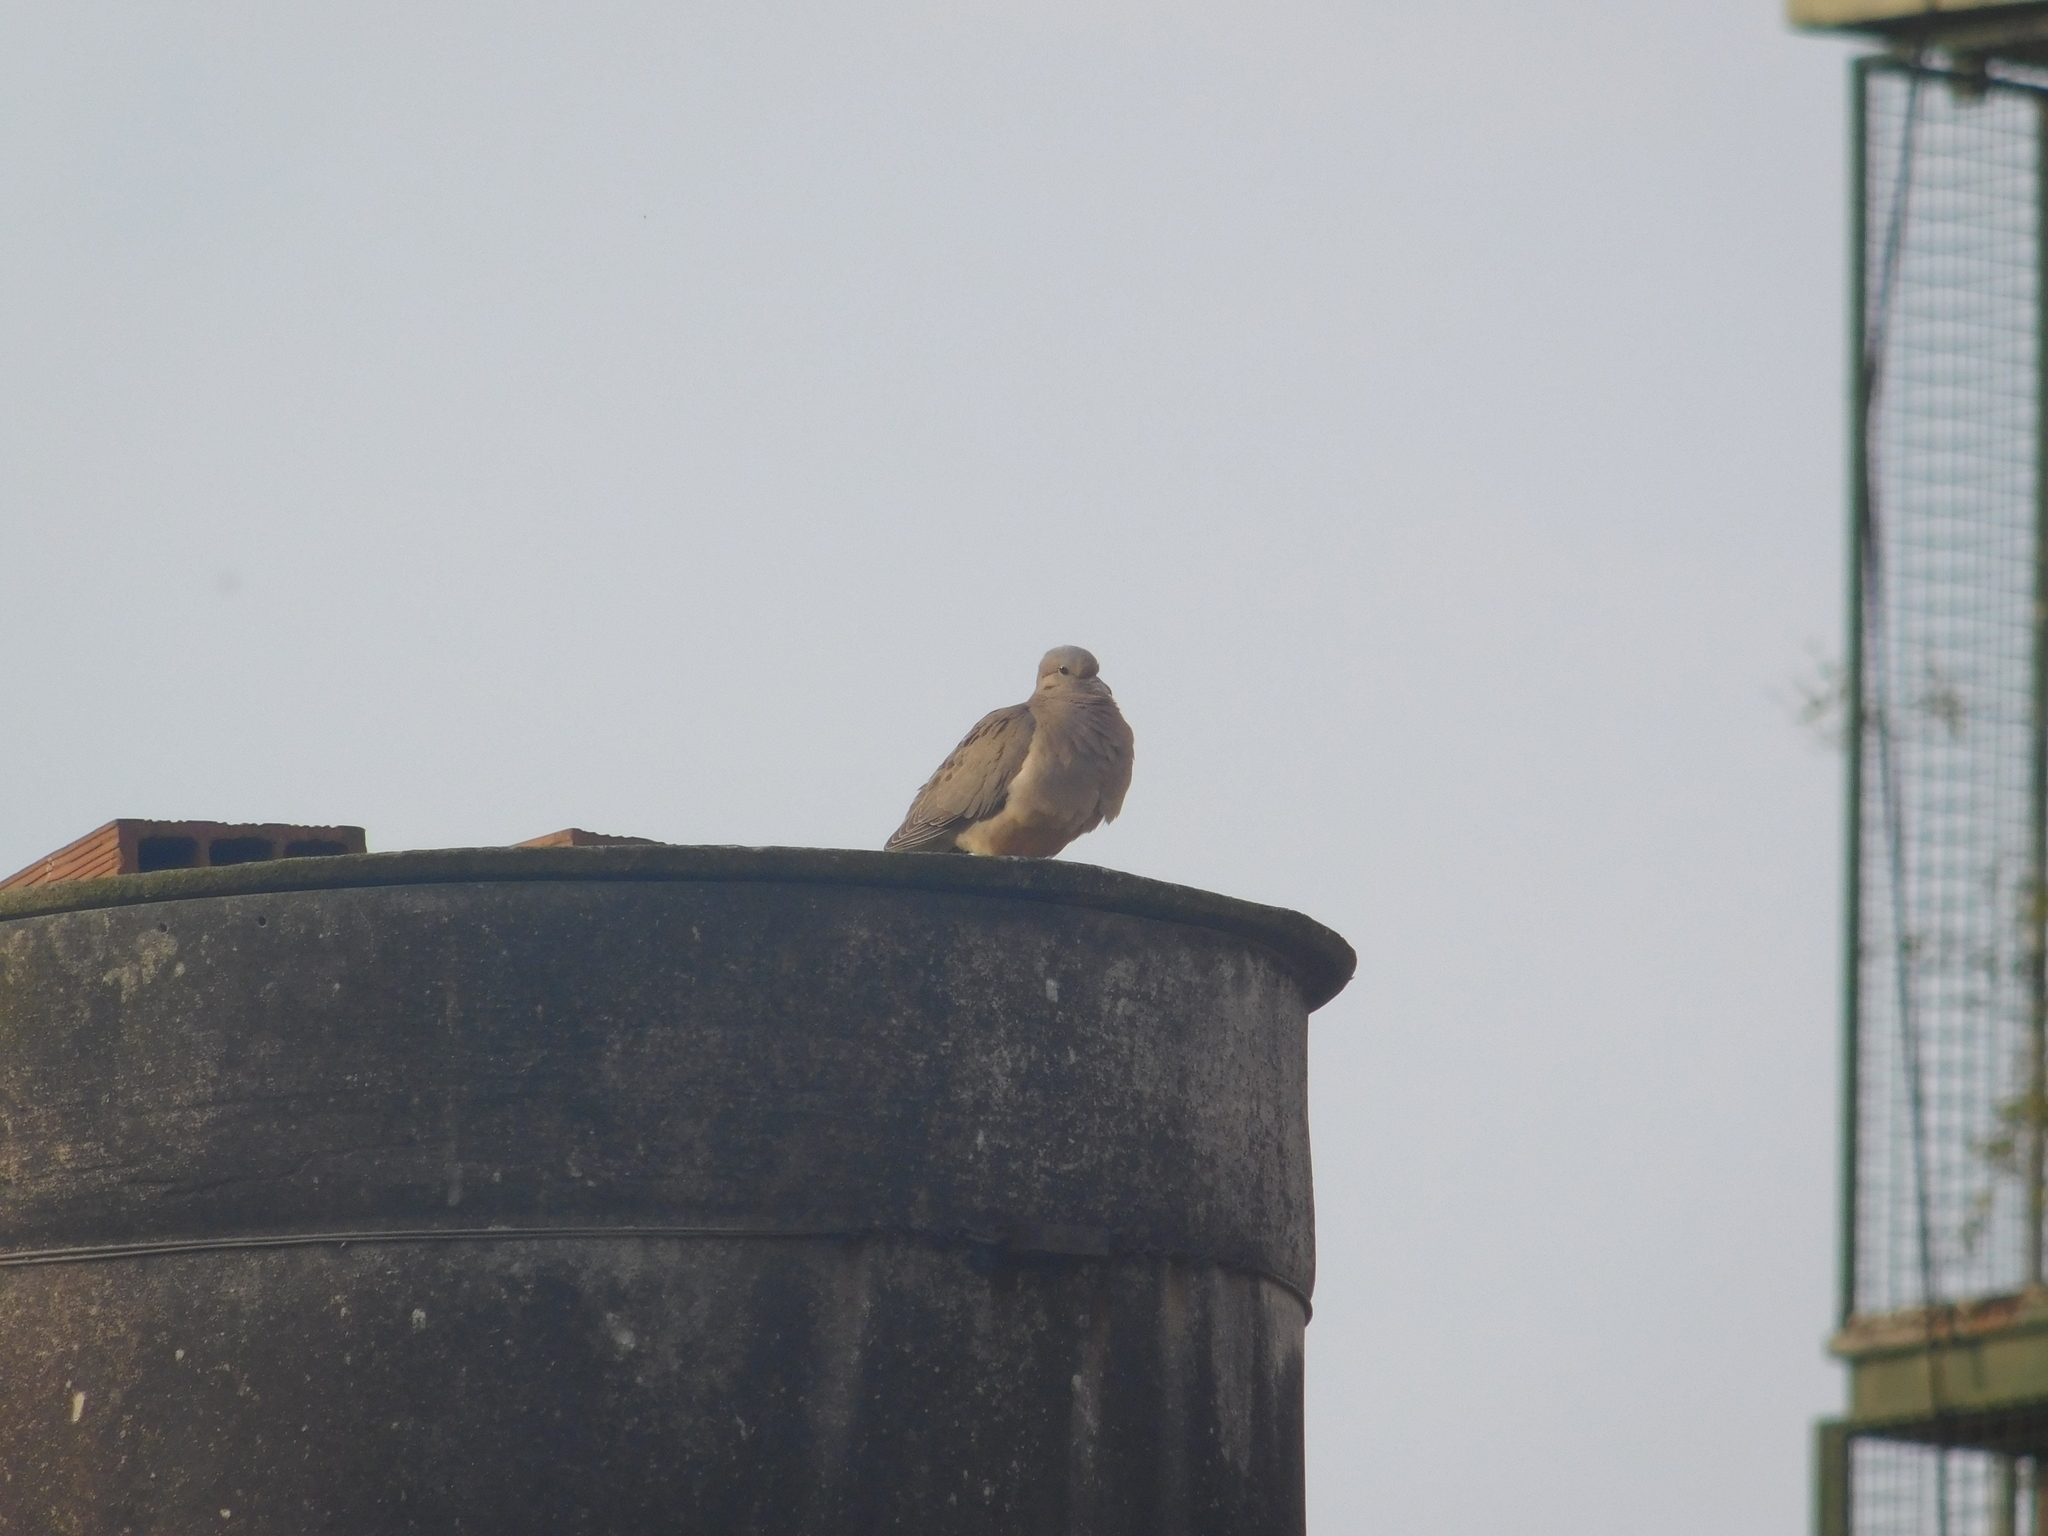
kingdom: Animalia
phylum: Chordata
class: Aves
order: Columbiformes
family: Columbidae
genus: Zenaida
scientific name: Zenaida auriculata
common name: Eared dove
